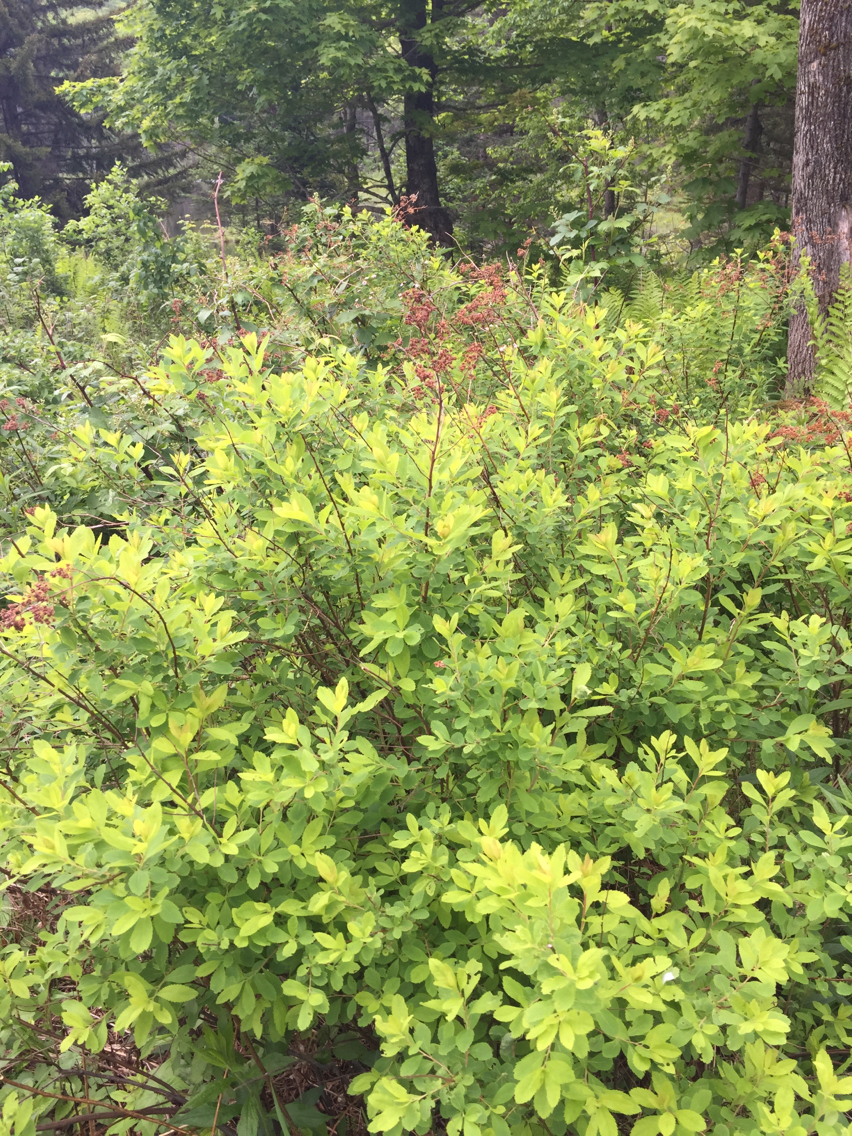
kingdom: Plantae
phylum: Tracheophyta
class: Magnoliopsida
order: Rosales
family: Rosaceae
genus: Spiraea
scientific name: Spiraea alba
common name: Pale bridewort
